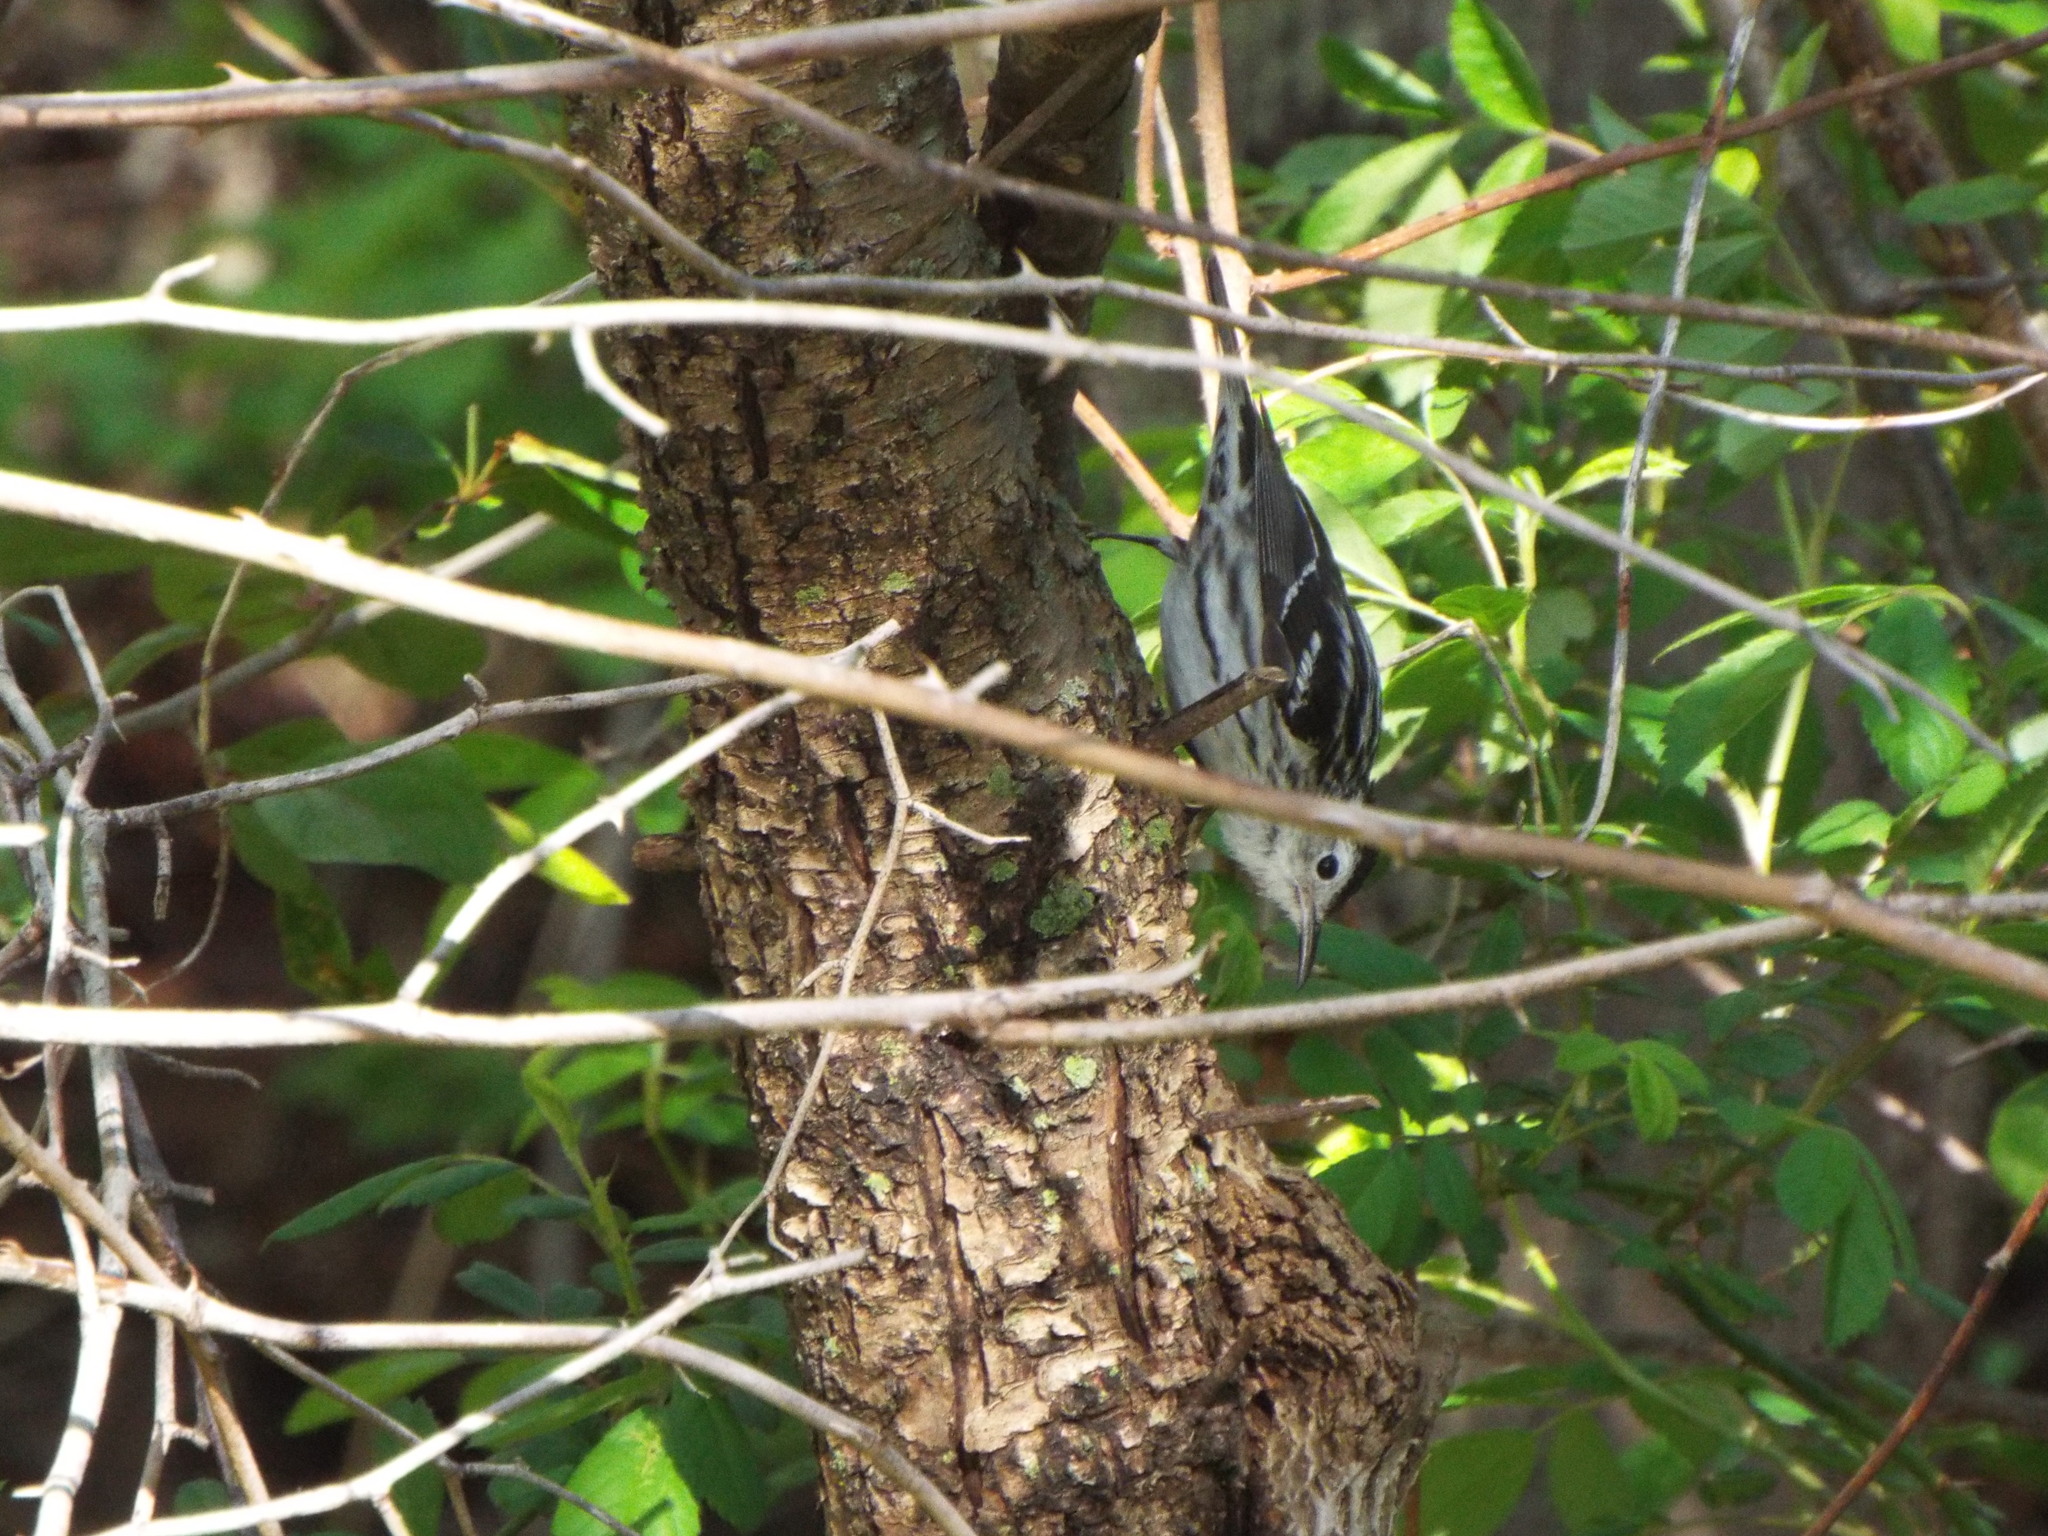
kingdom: Animalia
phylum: Chordata
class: Aves
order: Passeriformes
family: Parulidae
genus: Mniotilta
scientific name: Mniotilta varia
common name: Black-and-white warbler
